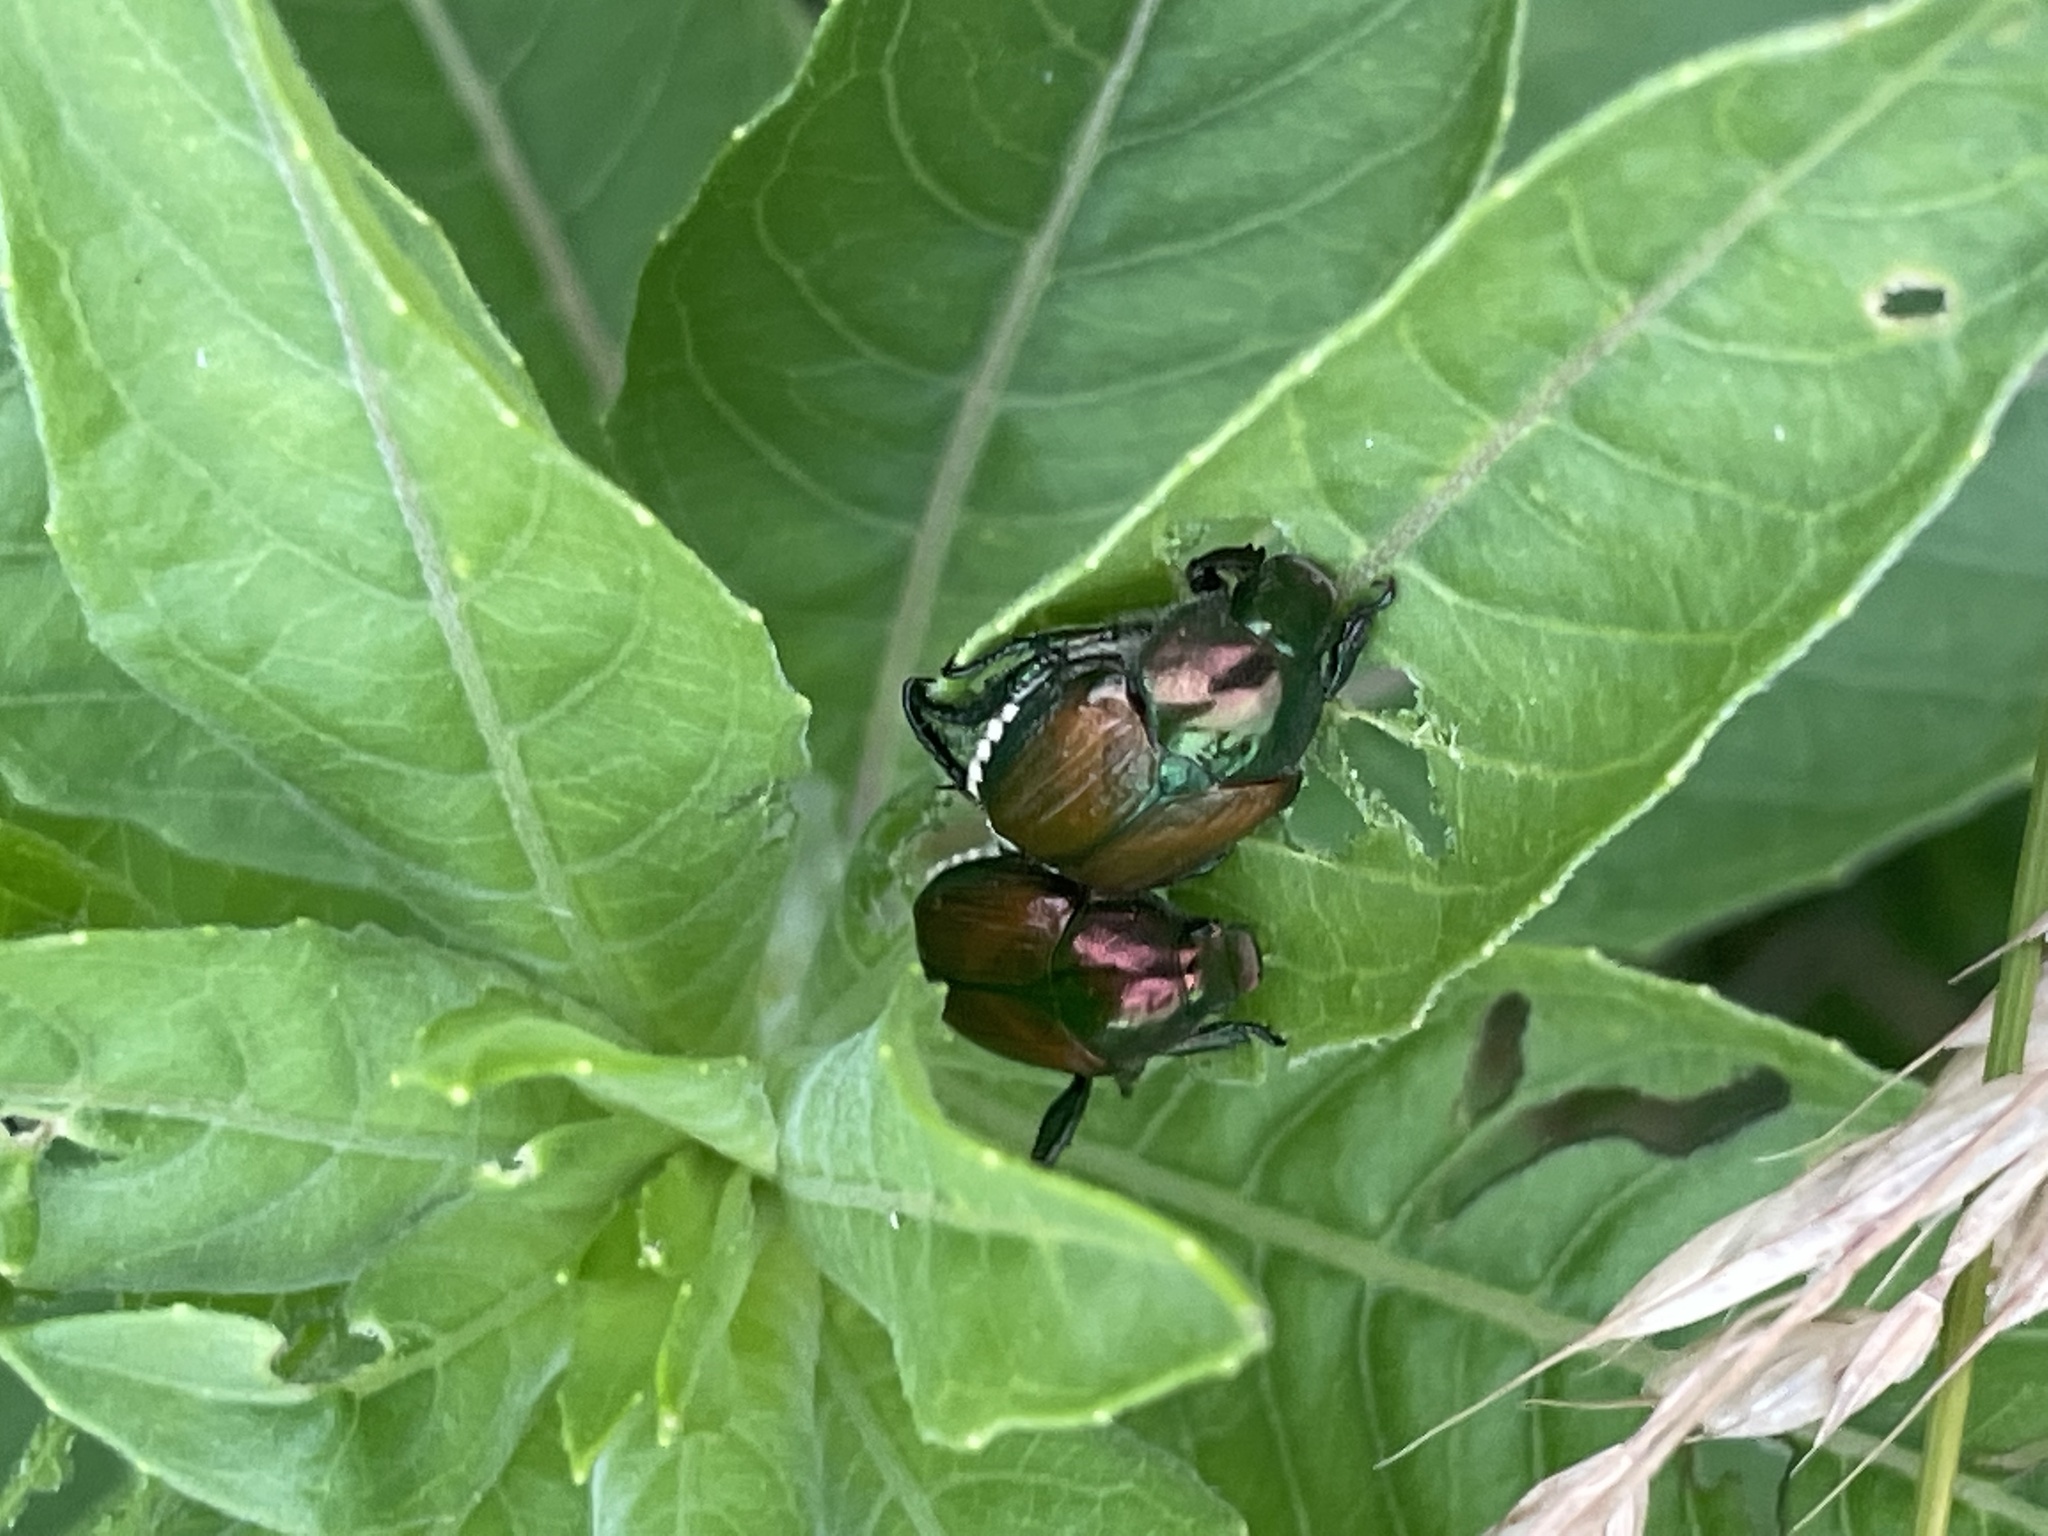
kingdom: Animalia
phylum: Arthropoda
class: Insecta
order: Coleoptera
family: Scarabaeidae
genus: Popillia
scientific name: Popillia japonica
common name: Japanese beetle
